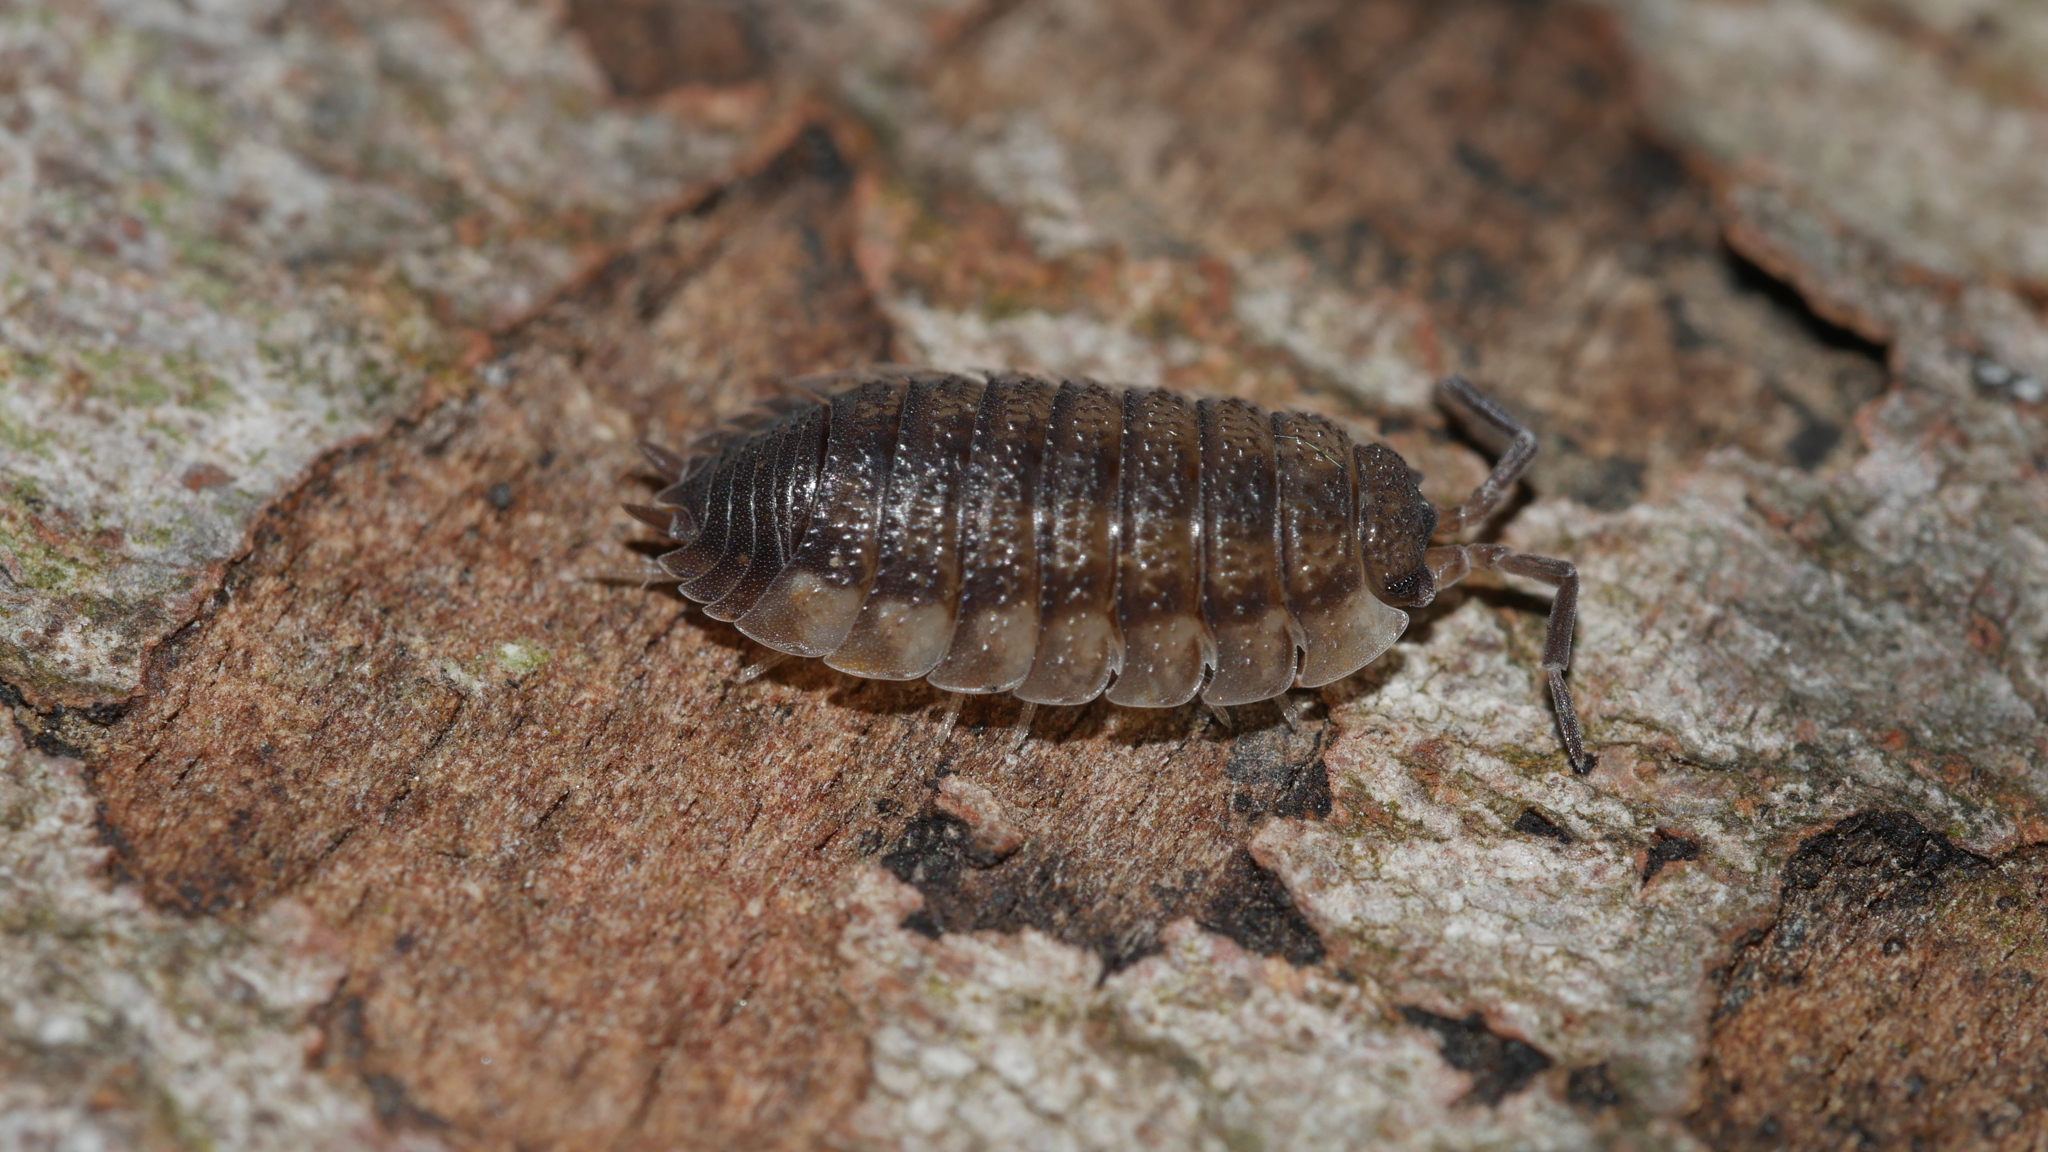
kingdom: Animalia
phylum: Arthropoda
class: Malacostraca
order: Isopoda
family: Porcellionidae
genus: Porcellio
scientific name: Porcellio scaber
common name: Common rough woodlouse
